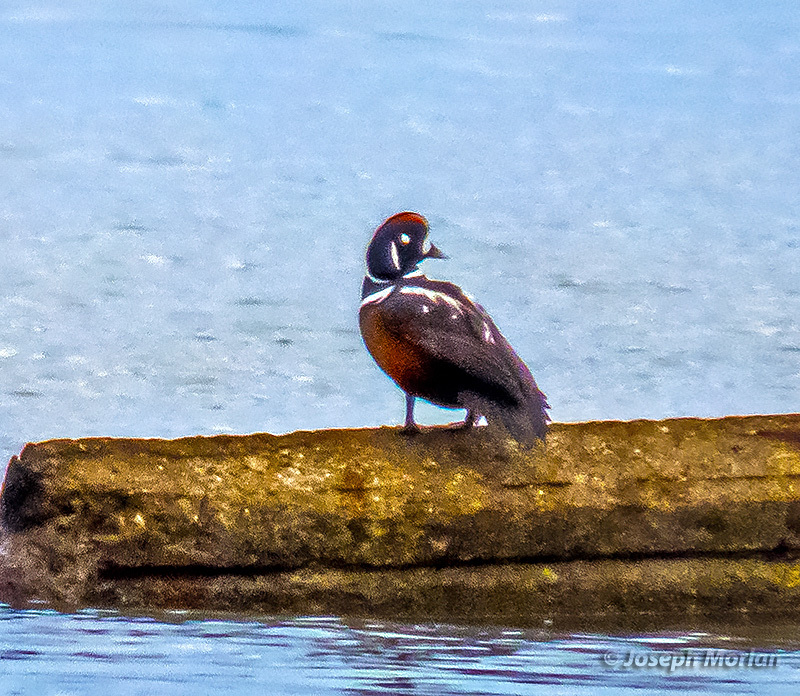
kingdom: Animalia
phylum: Chordata
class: Aves
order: Anseriformes
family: Anatidae
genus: Histrionicus
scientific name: Histrionicus histrionicus
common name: Harlequin duck
